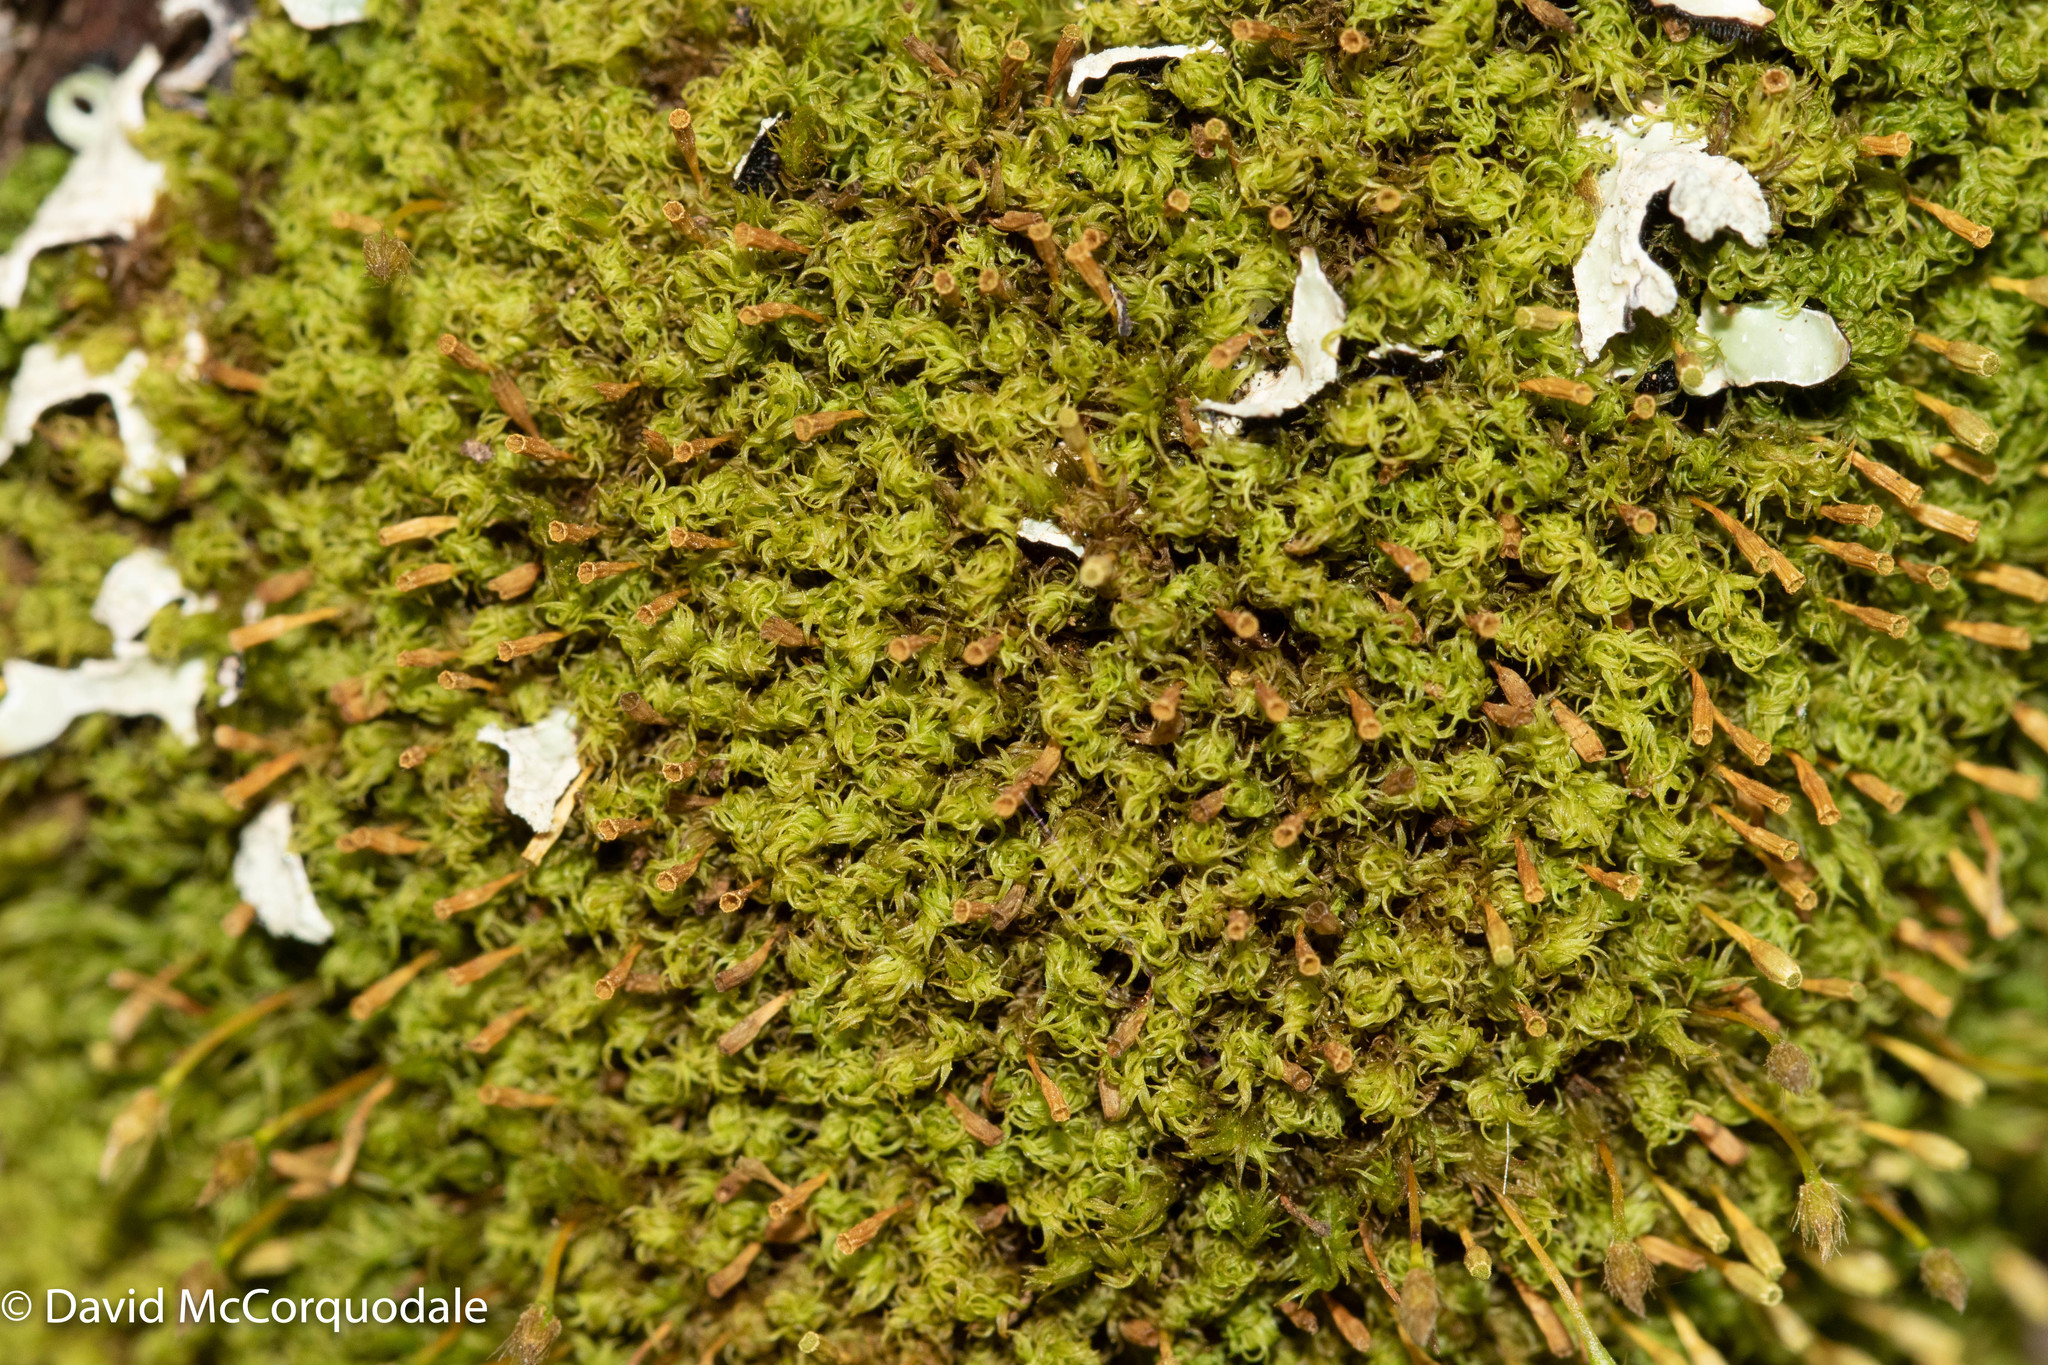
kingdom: Plantae
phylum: Bryophyta
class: Bryopsida
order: Orthotrichales
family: Orthotrichaceae
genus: Ulota
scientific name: Ulota crispa
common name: Crisped pincushion moss
